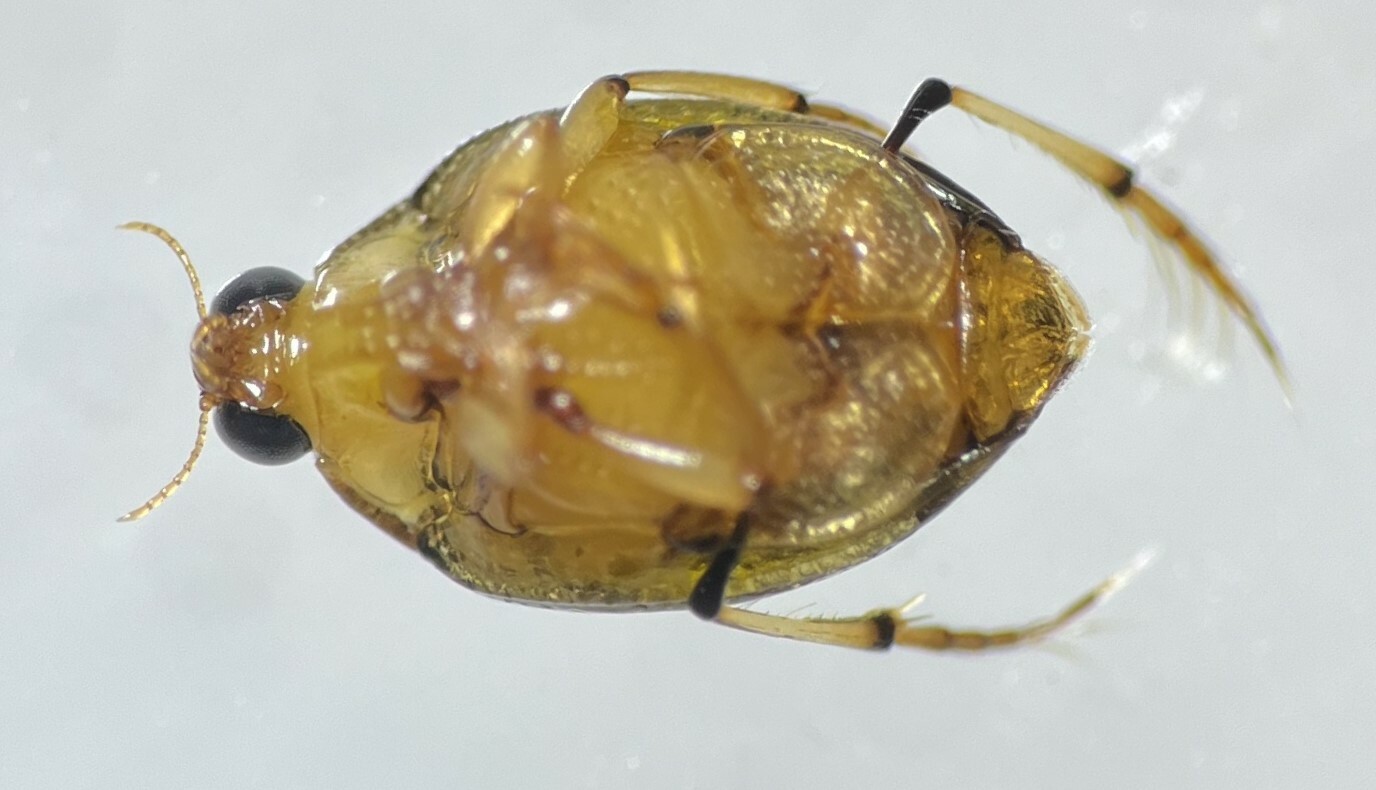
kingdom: Animalia
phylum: Arthropoda
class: Insecta
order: Coleoptera
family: Haliplidae
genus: Peltodytes
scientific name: Peltodytes sexmaculatus
